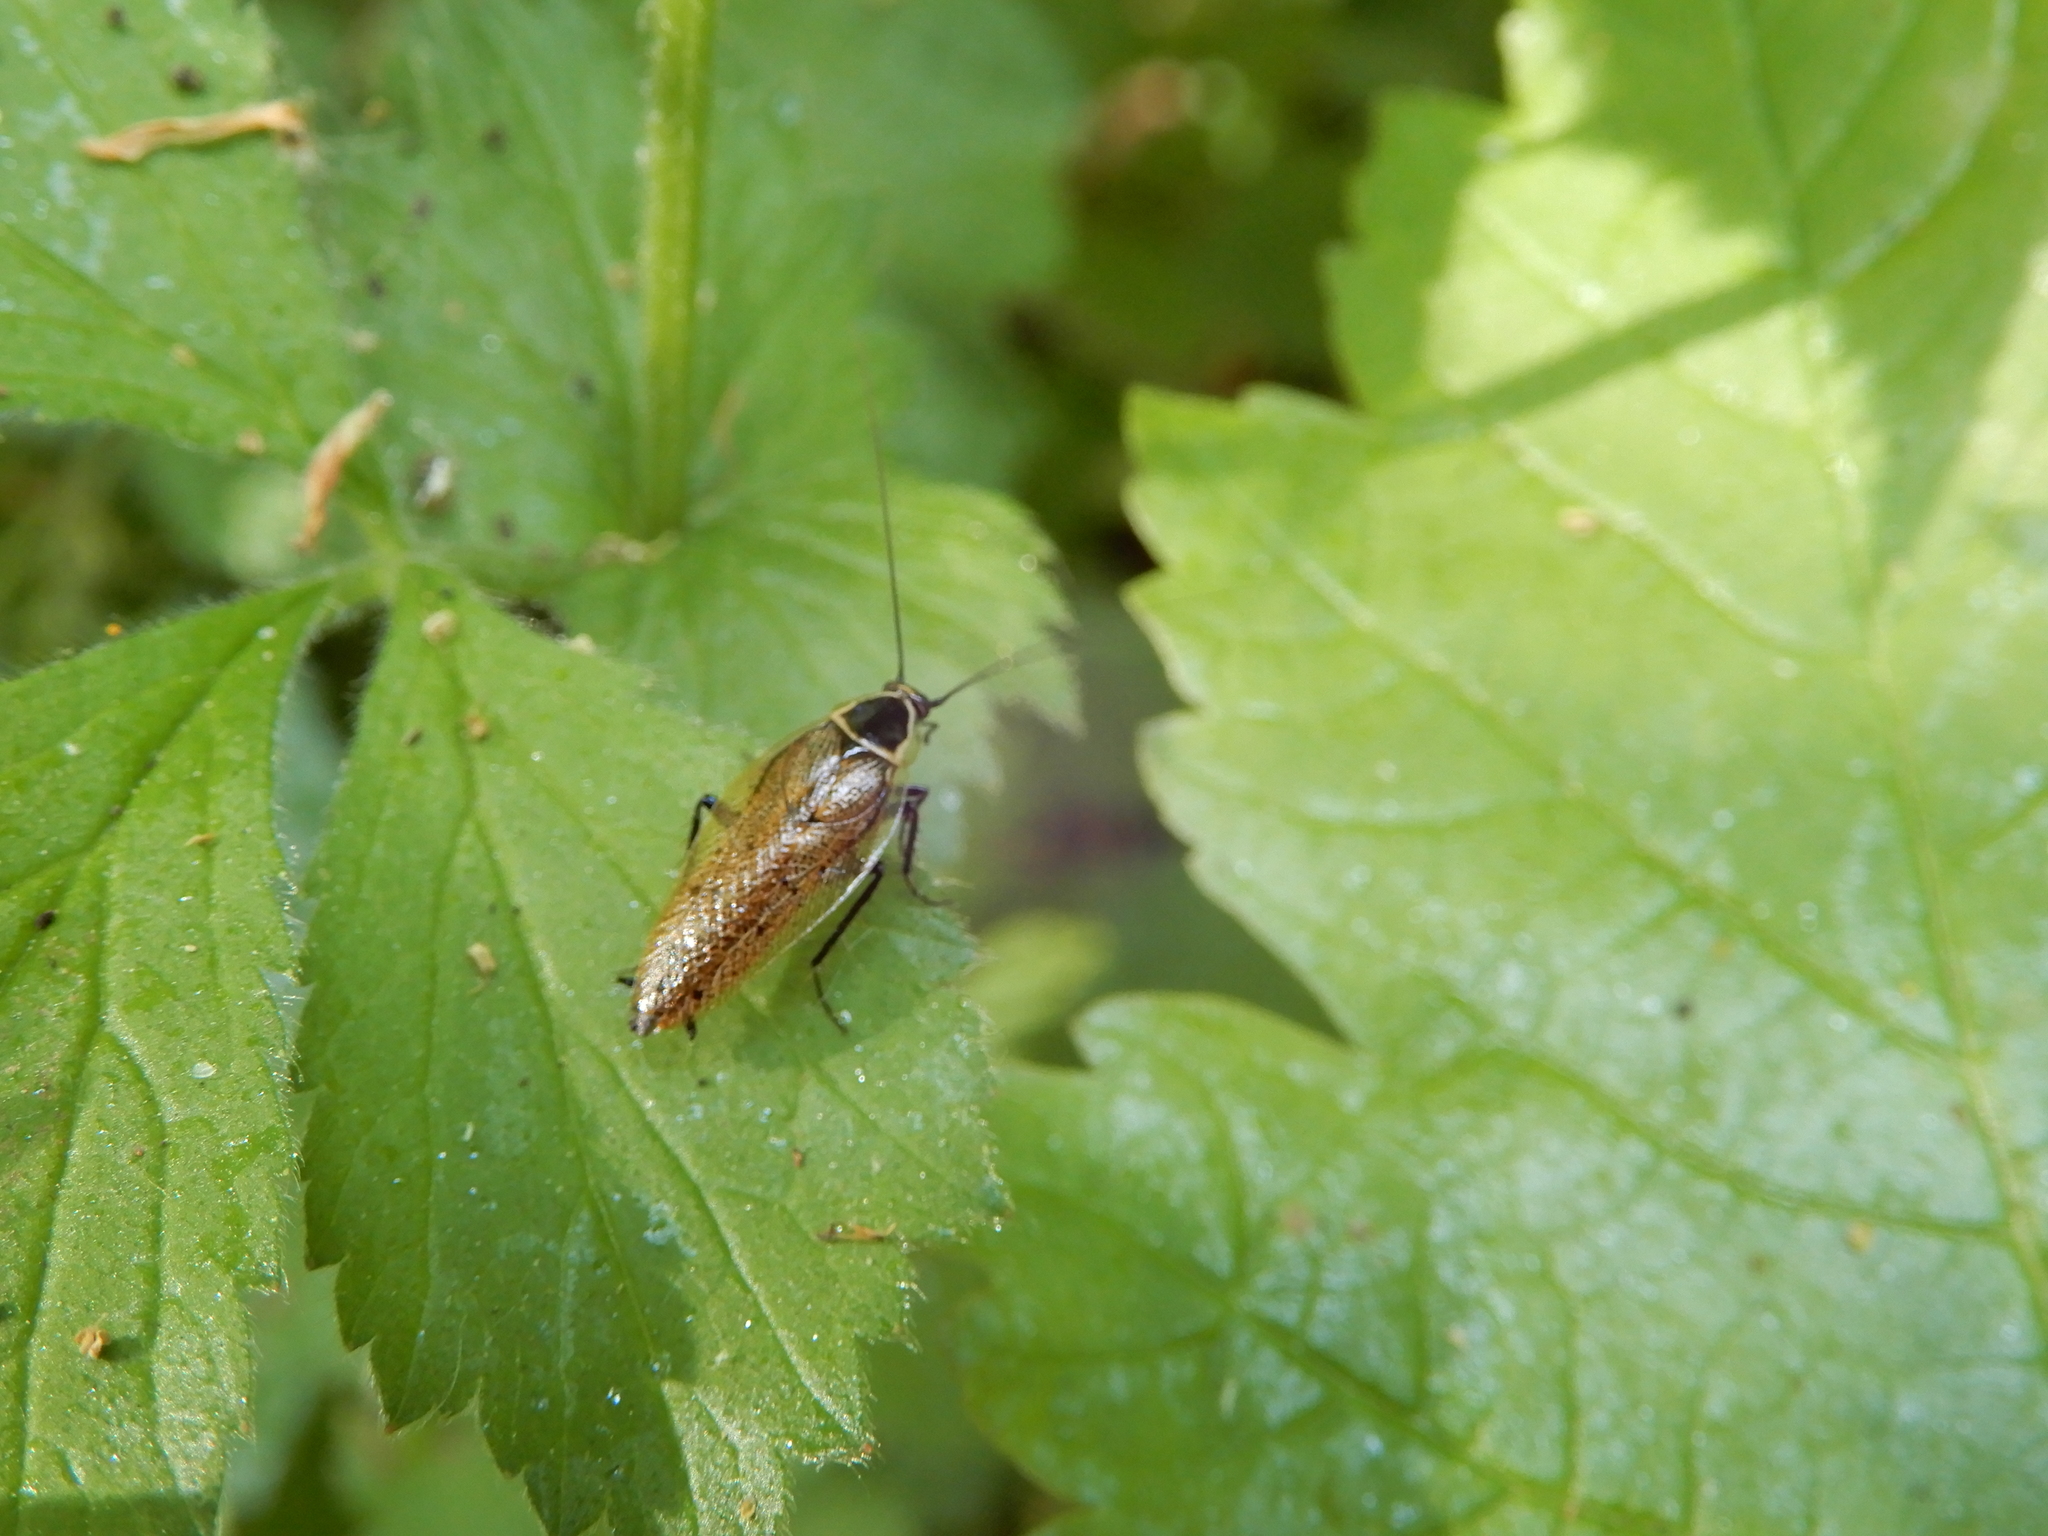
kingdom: Animalia
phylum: Arthropoda
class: Insecta
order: Blattodea
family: Ectobiidae
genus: Ectobius
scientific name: Ectobius sylvestris
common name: Forest cockroach
